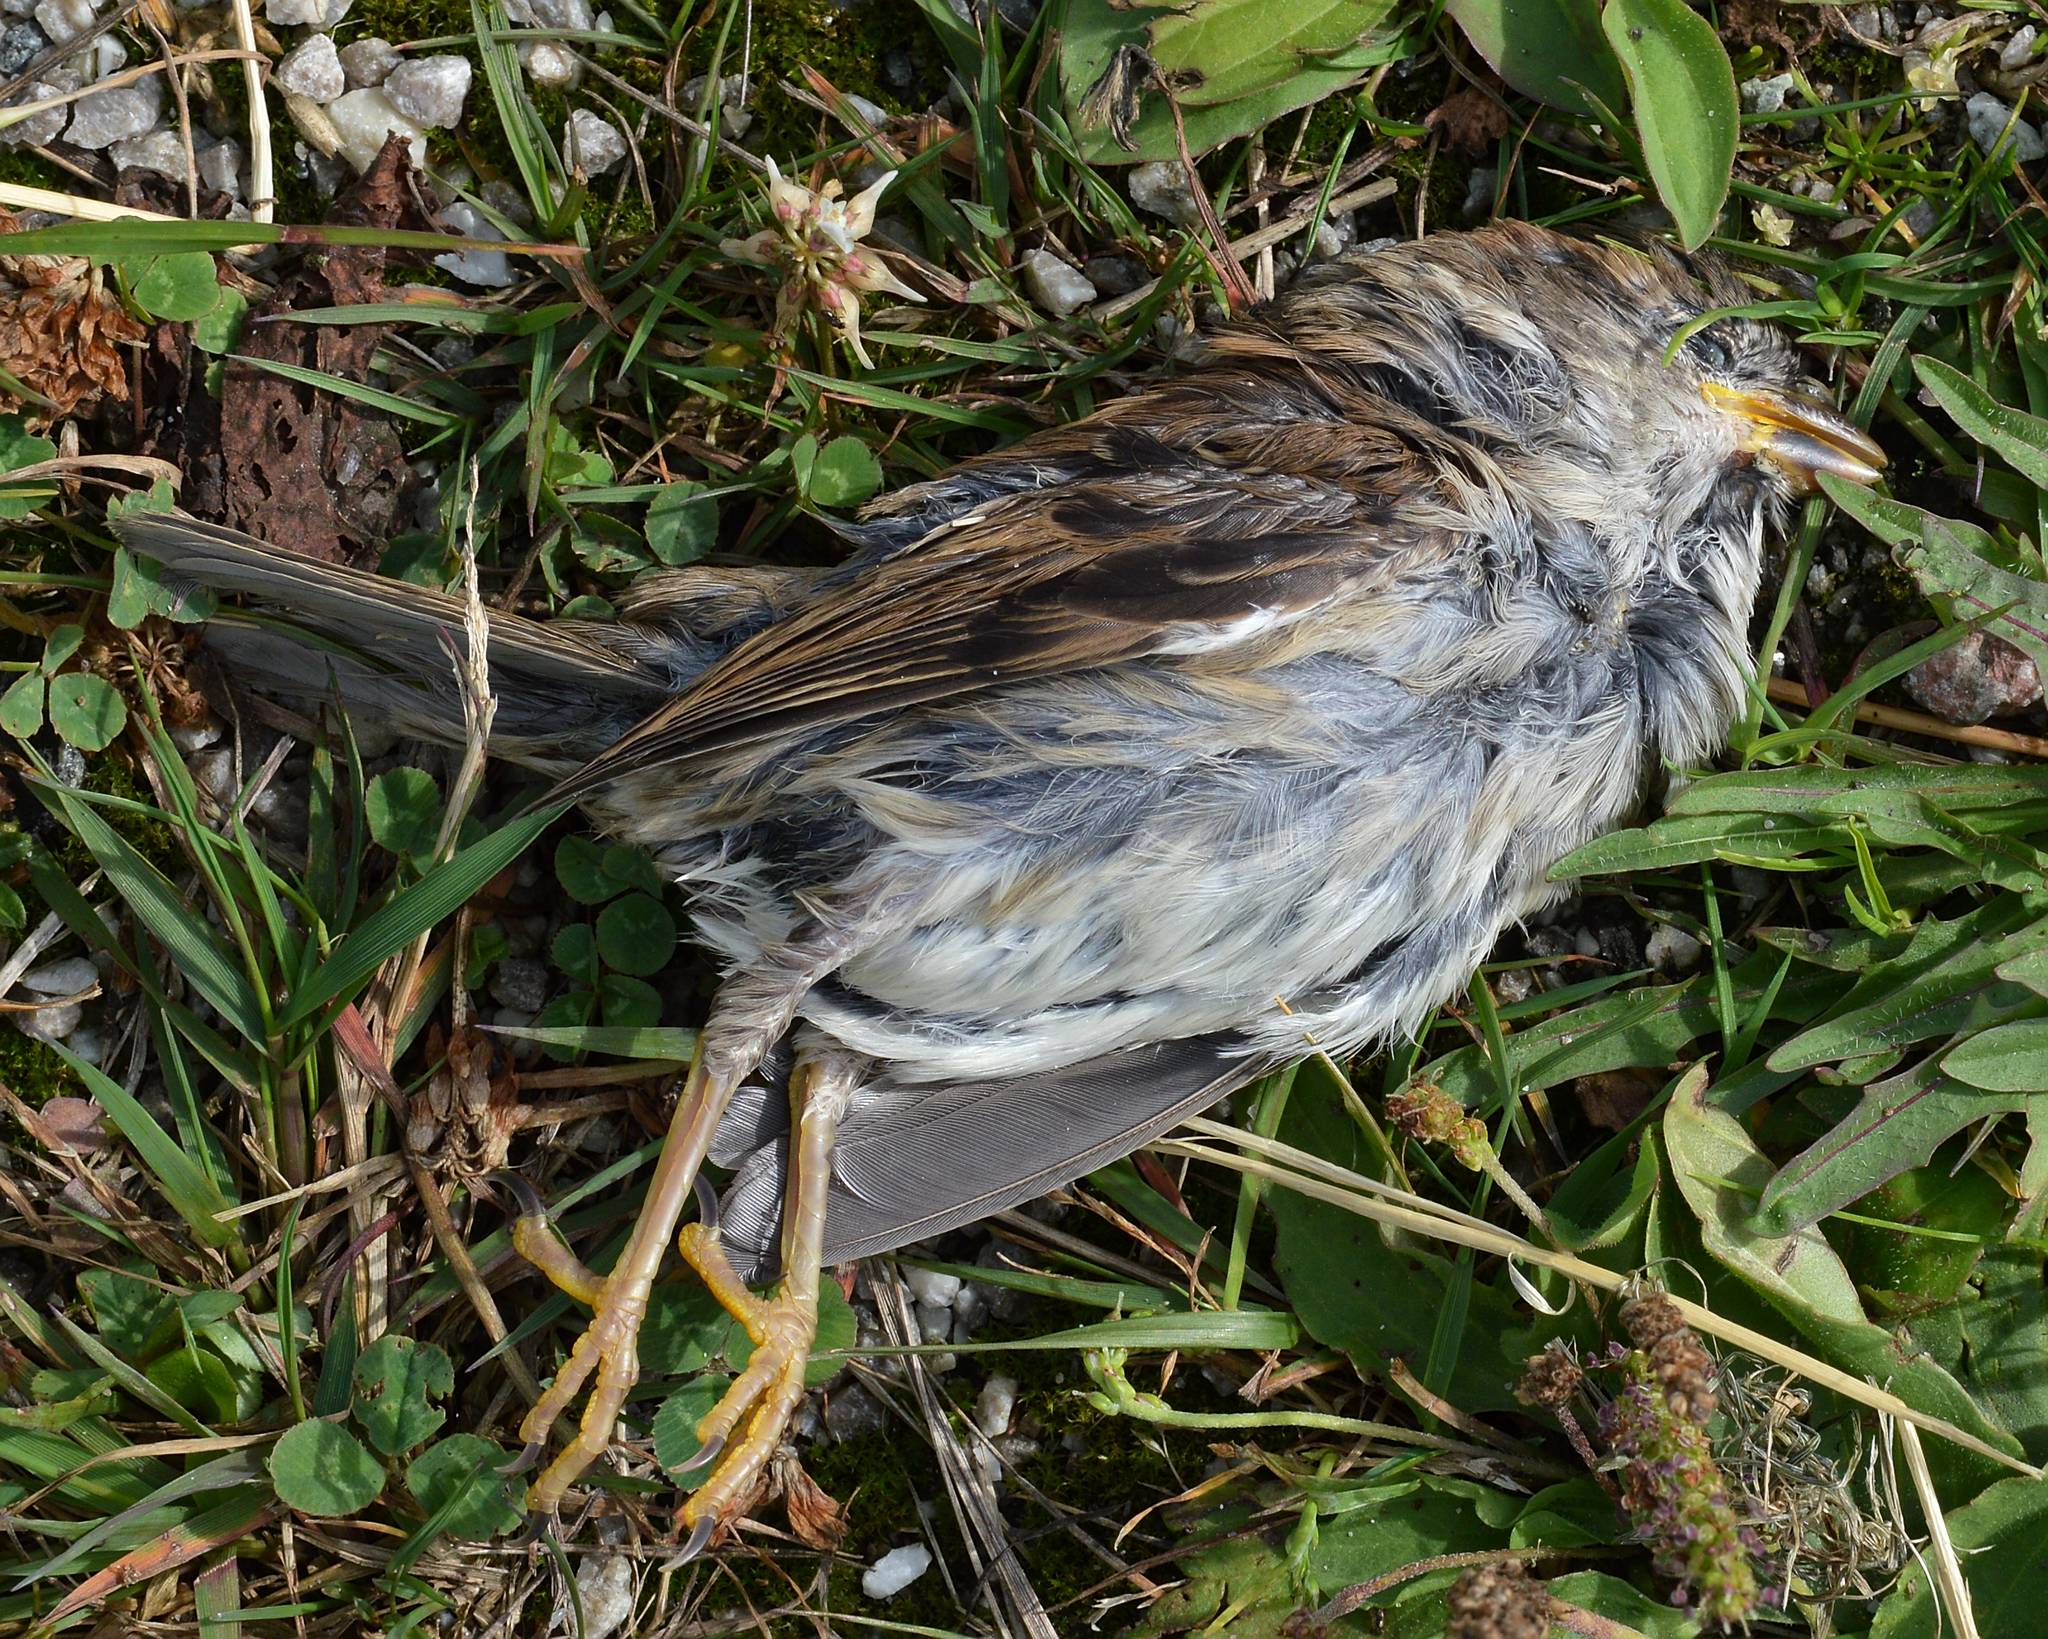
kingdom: Animalia
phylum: Chordata
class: Aves
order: Passeriformes
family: Passeridae
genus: Passer
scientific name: Passer domesticus
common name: House sparrow
